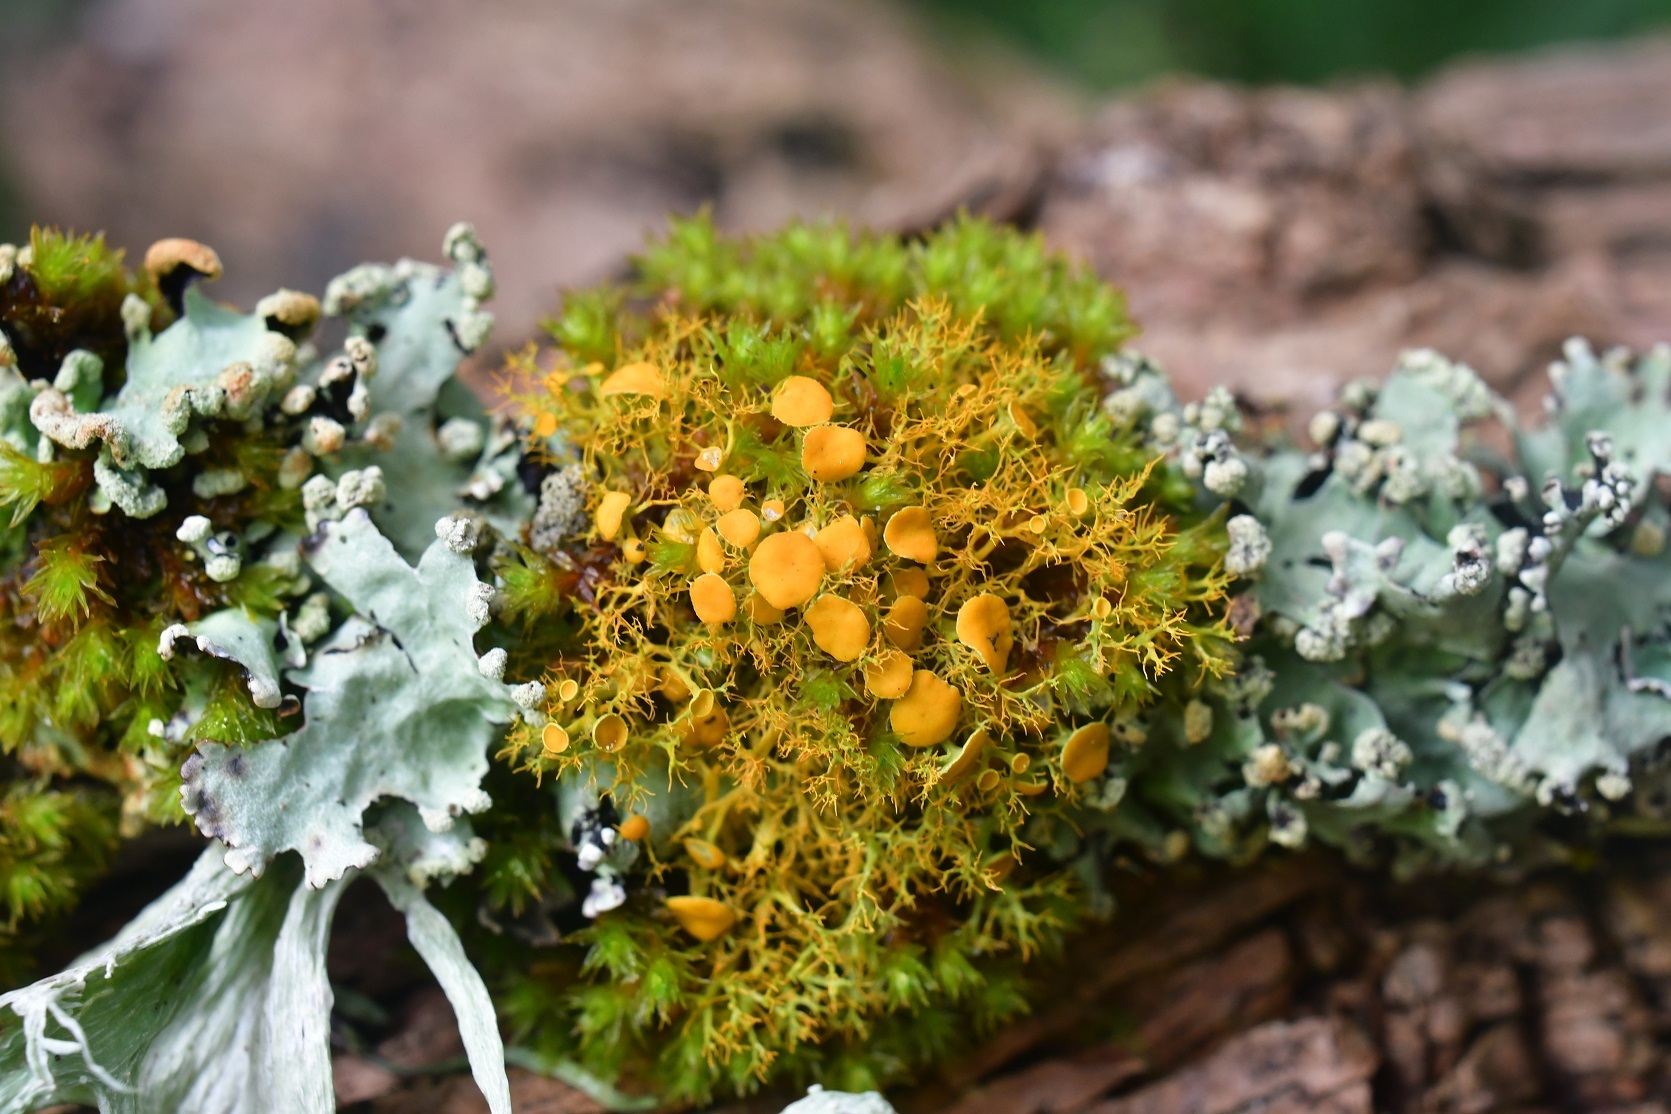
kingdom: Fungi
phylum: Ascomycota
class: Lecanoromycetes
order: Teloschistales
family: Teloschistaceae
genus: Teloschistes
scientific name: Teloschistes exilis
